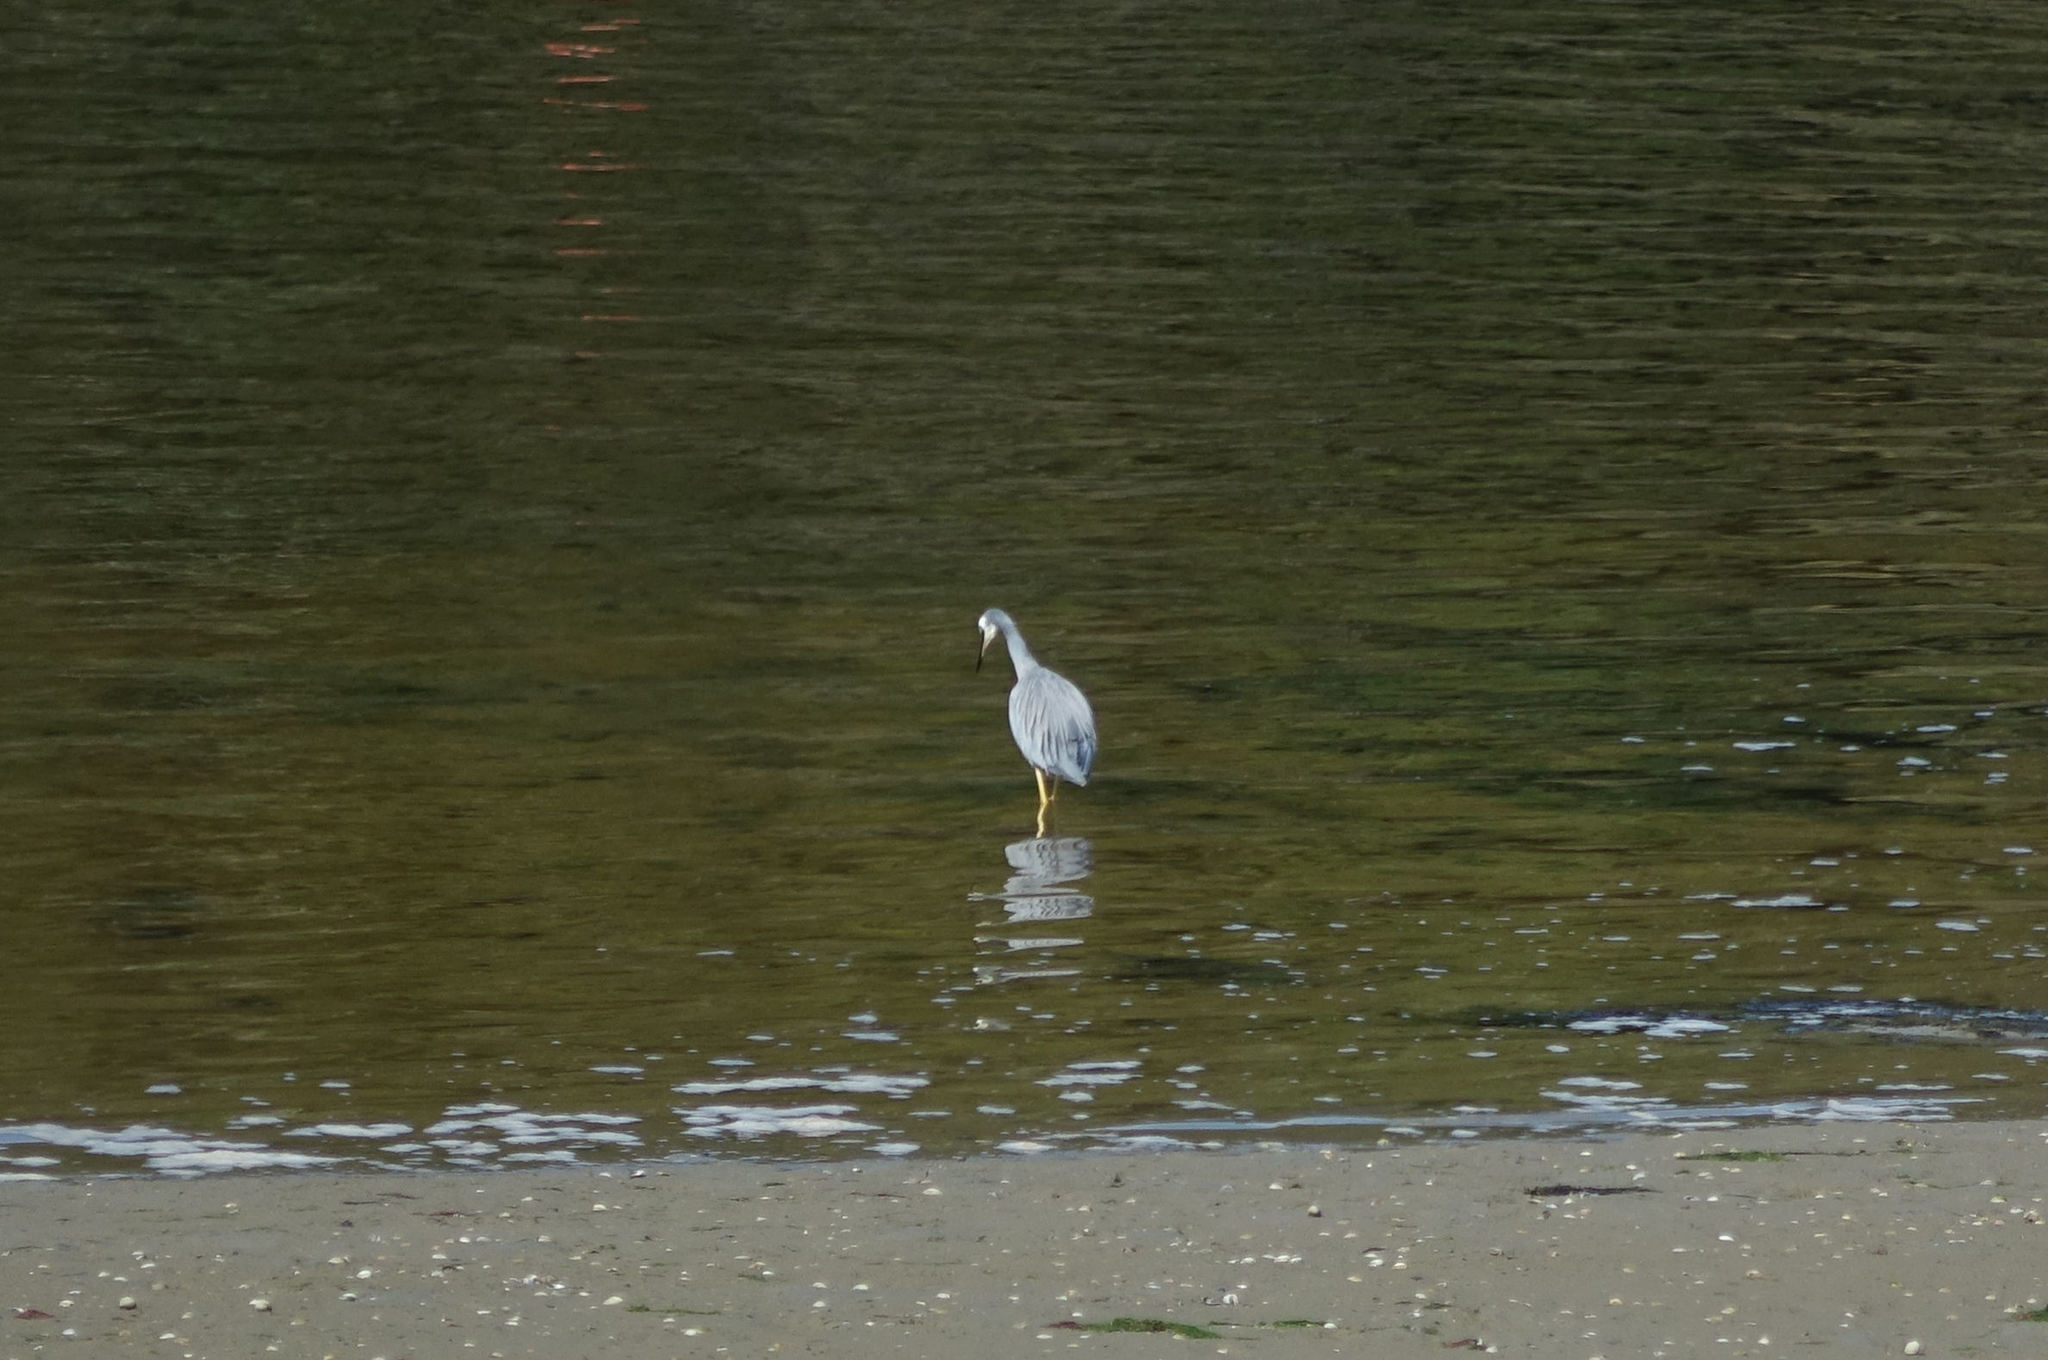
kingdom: Animalia
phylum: Chordata
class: Aves
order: Pelecaniformes
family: Ardeidae
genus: Egretta
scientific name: Egretta novaehollandiae
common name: White-faced heron
